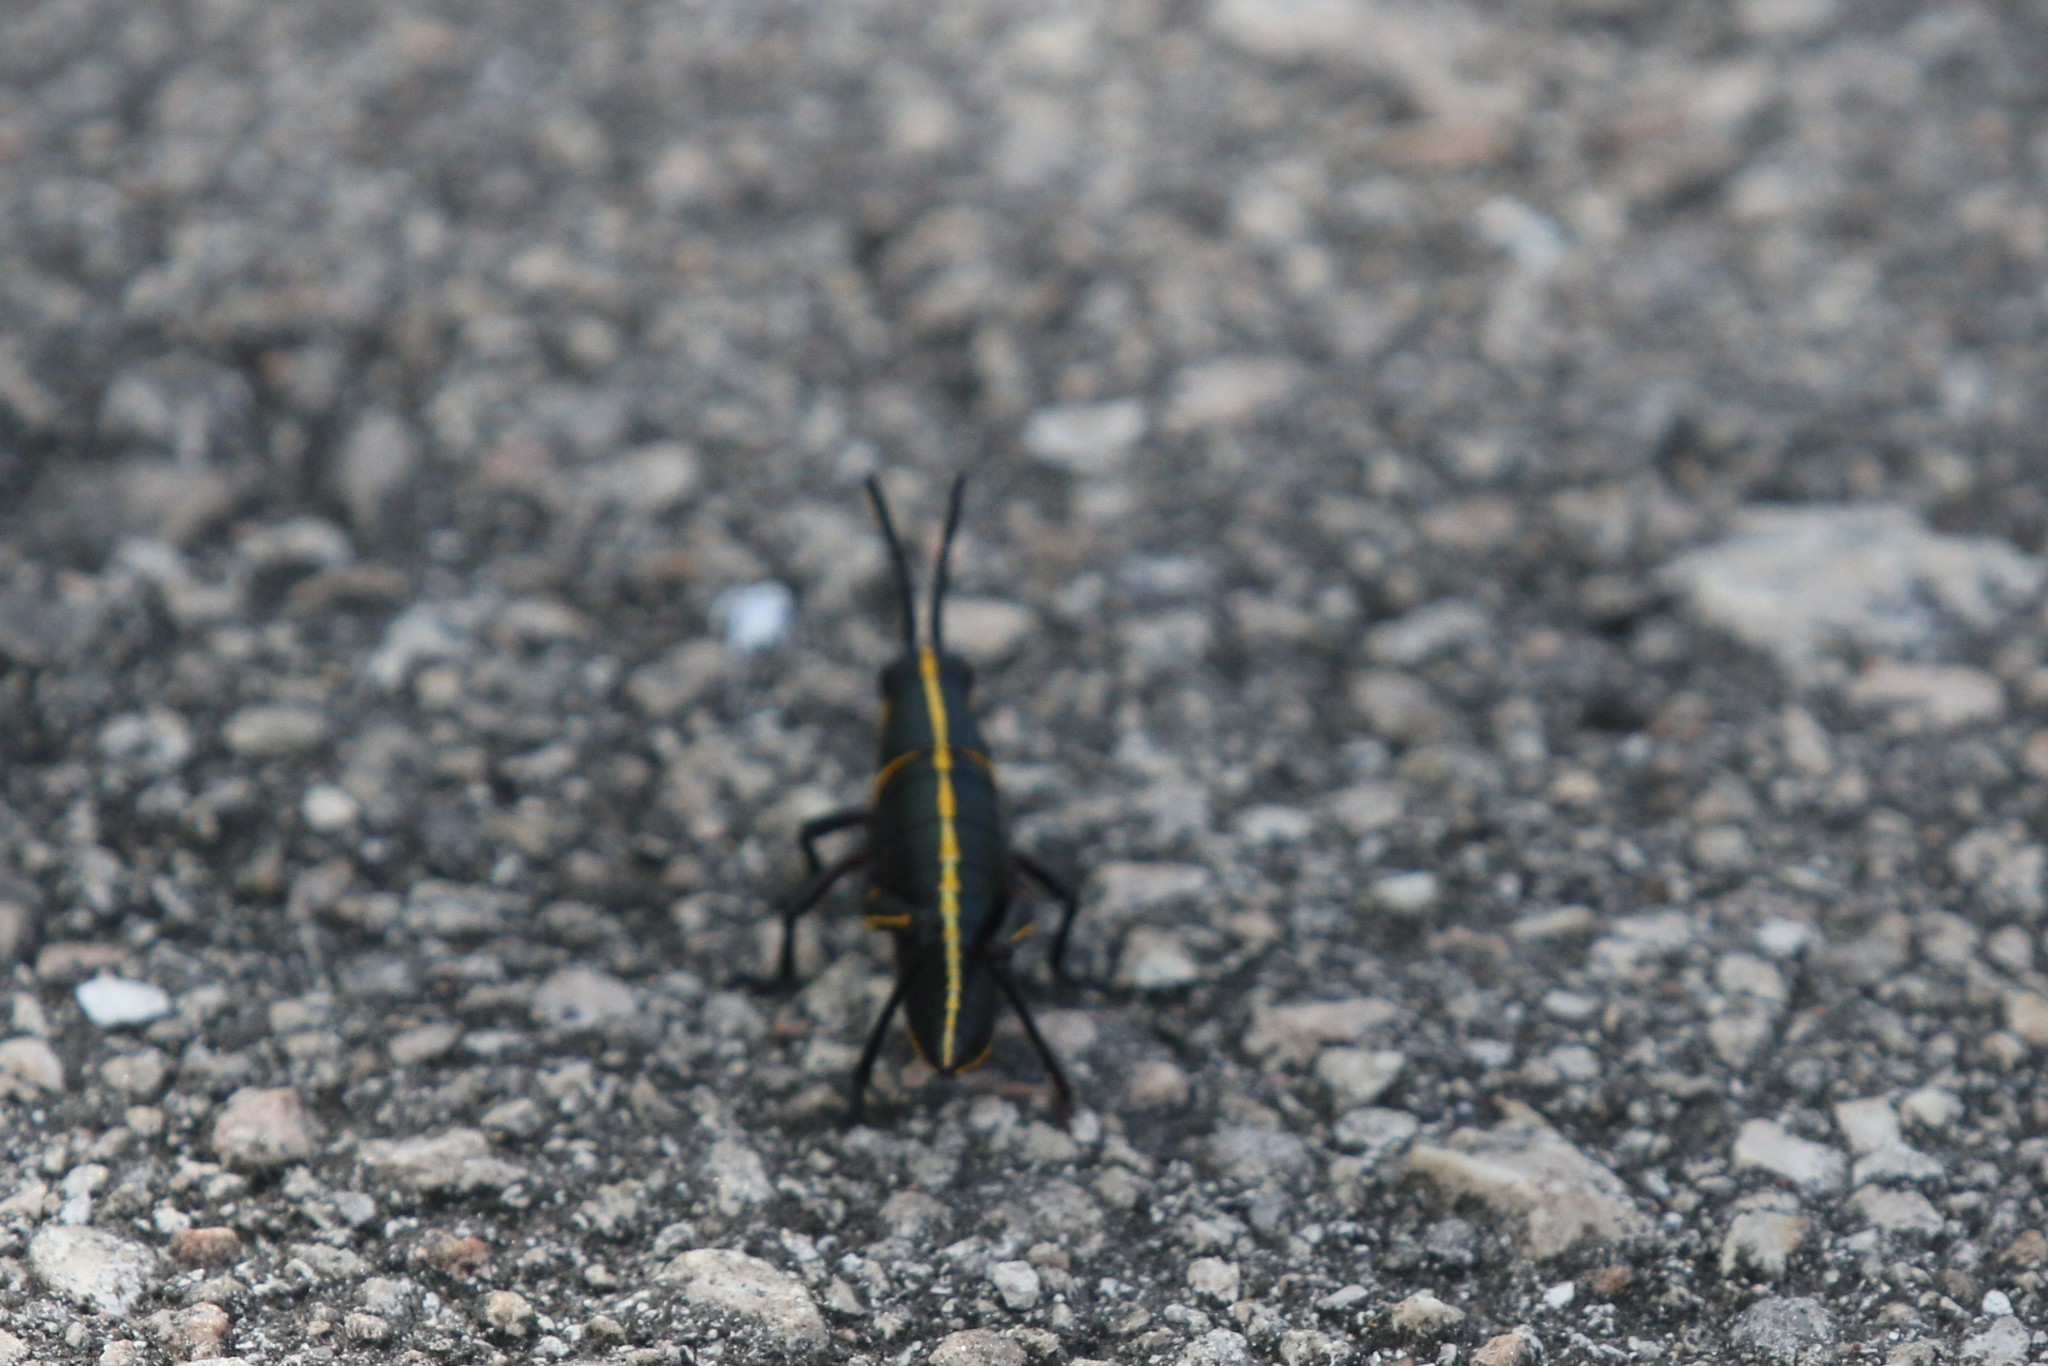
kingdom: Animalia
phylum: Arthropoda
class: Insecta
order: Orthoptera
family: Romaleidae
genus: Romalea
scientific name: Romalea microptera
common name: Eastern lubber grasshopper
